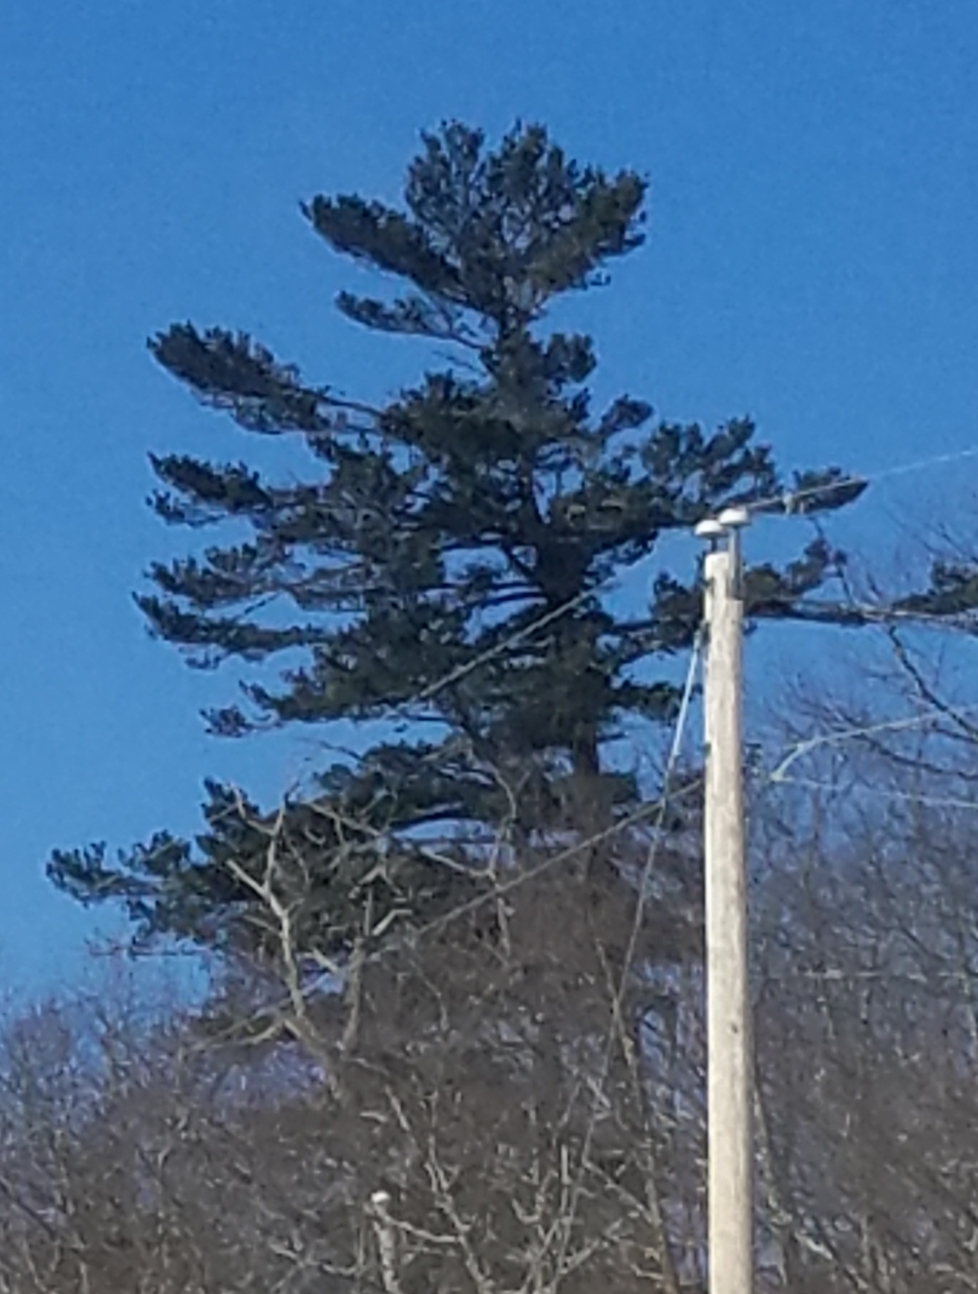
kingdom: Plantae
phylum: Tracheophyta
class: Pinopsida
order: Pinales
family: Pinaceae
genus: Pinus
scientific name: Pinus strobus
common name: Weymouth pine
